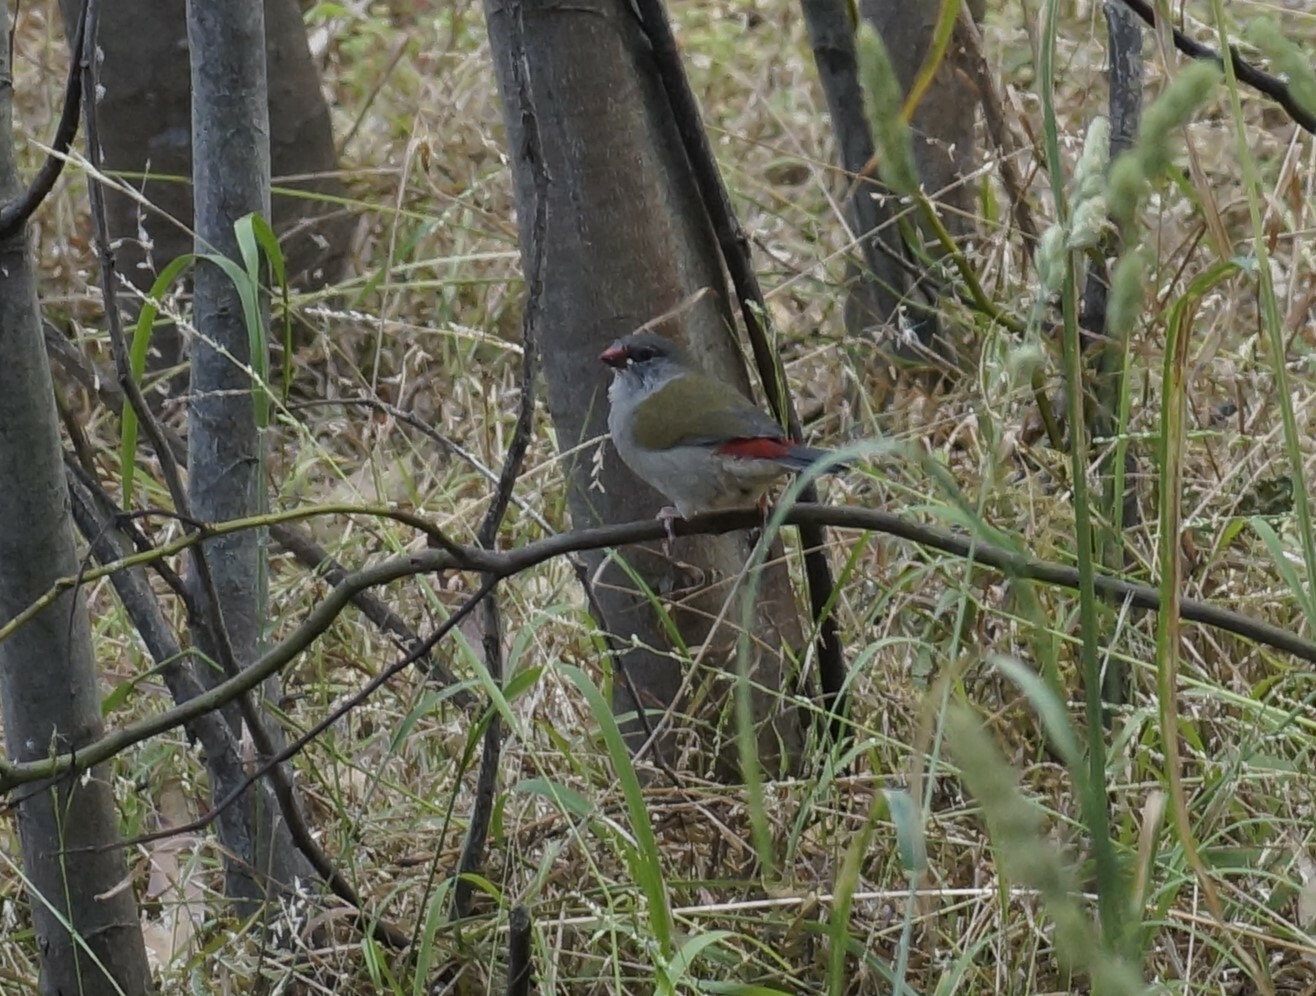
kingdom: Animalia
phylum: Chordata
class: Aves
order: Passeriformes
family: Estrildidae
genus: Neochmia
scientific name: Neochmia temporalis
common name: Red-browed finch
